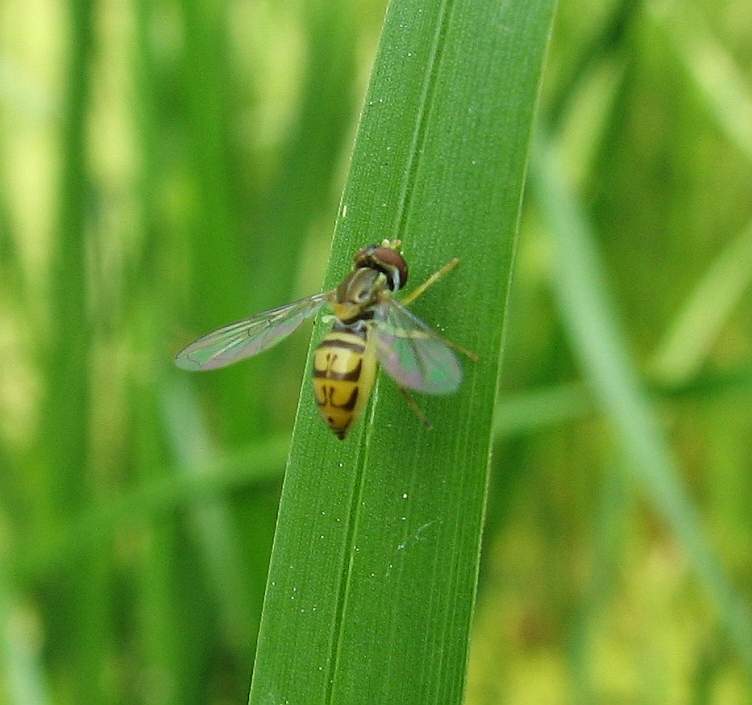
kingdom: Animalia
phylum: Arthropoda
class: Insecta
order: Diptera
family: Syrphidae
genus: Toxomerus
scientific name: Toxomerus marginatus
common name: Syrphid fly
